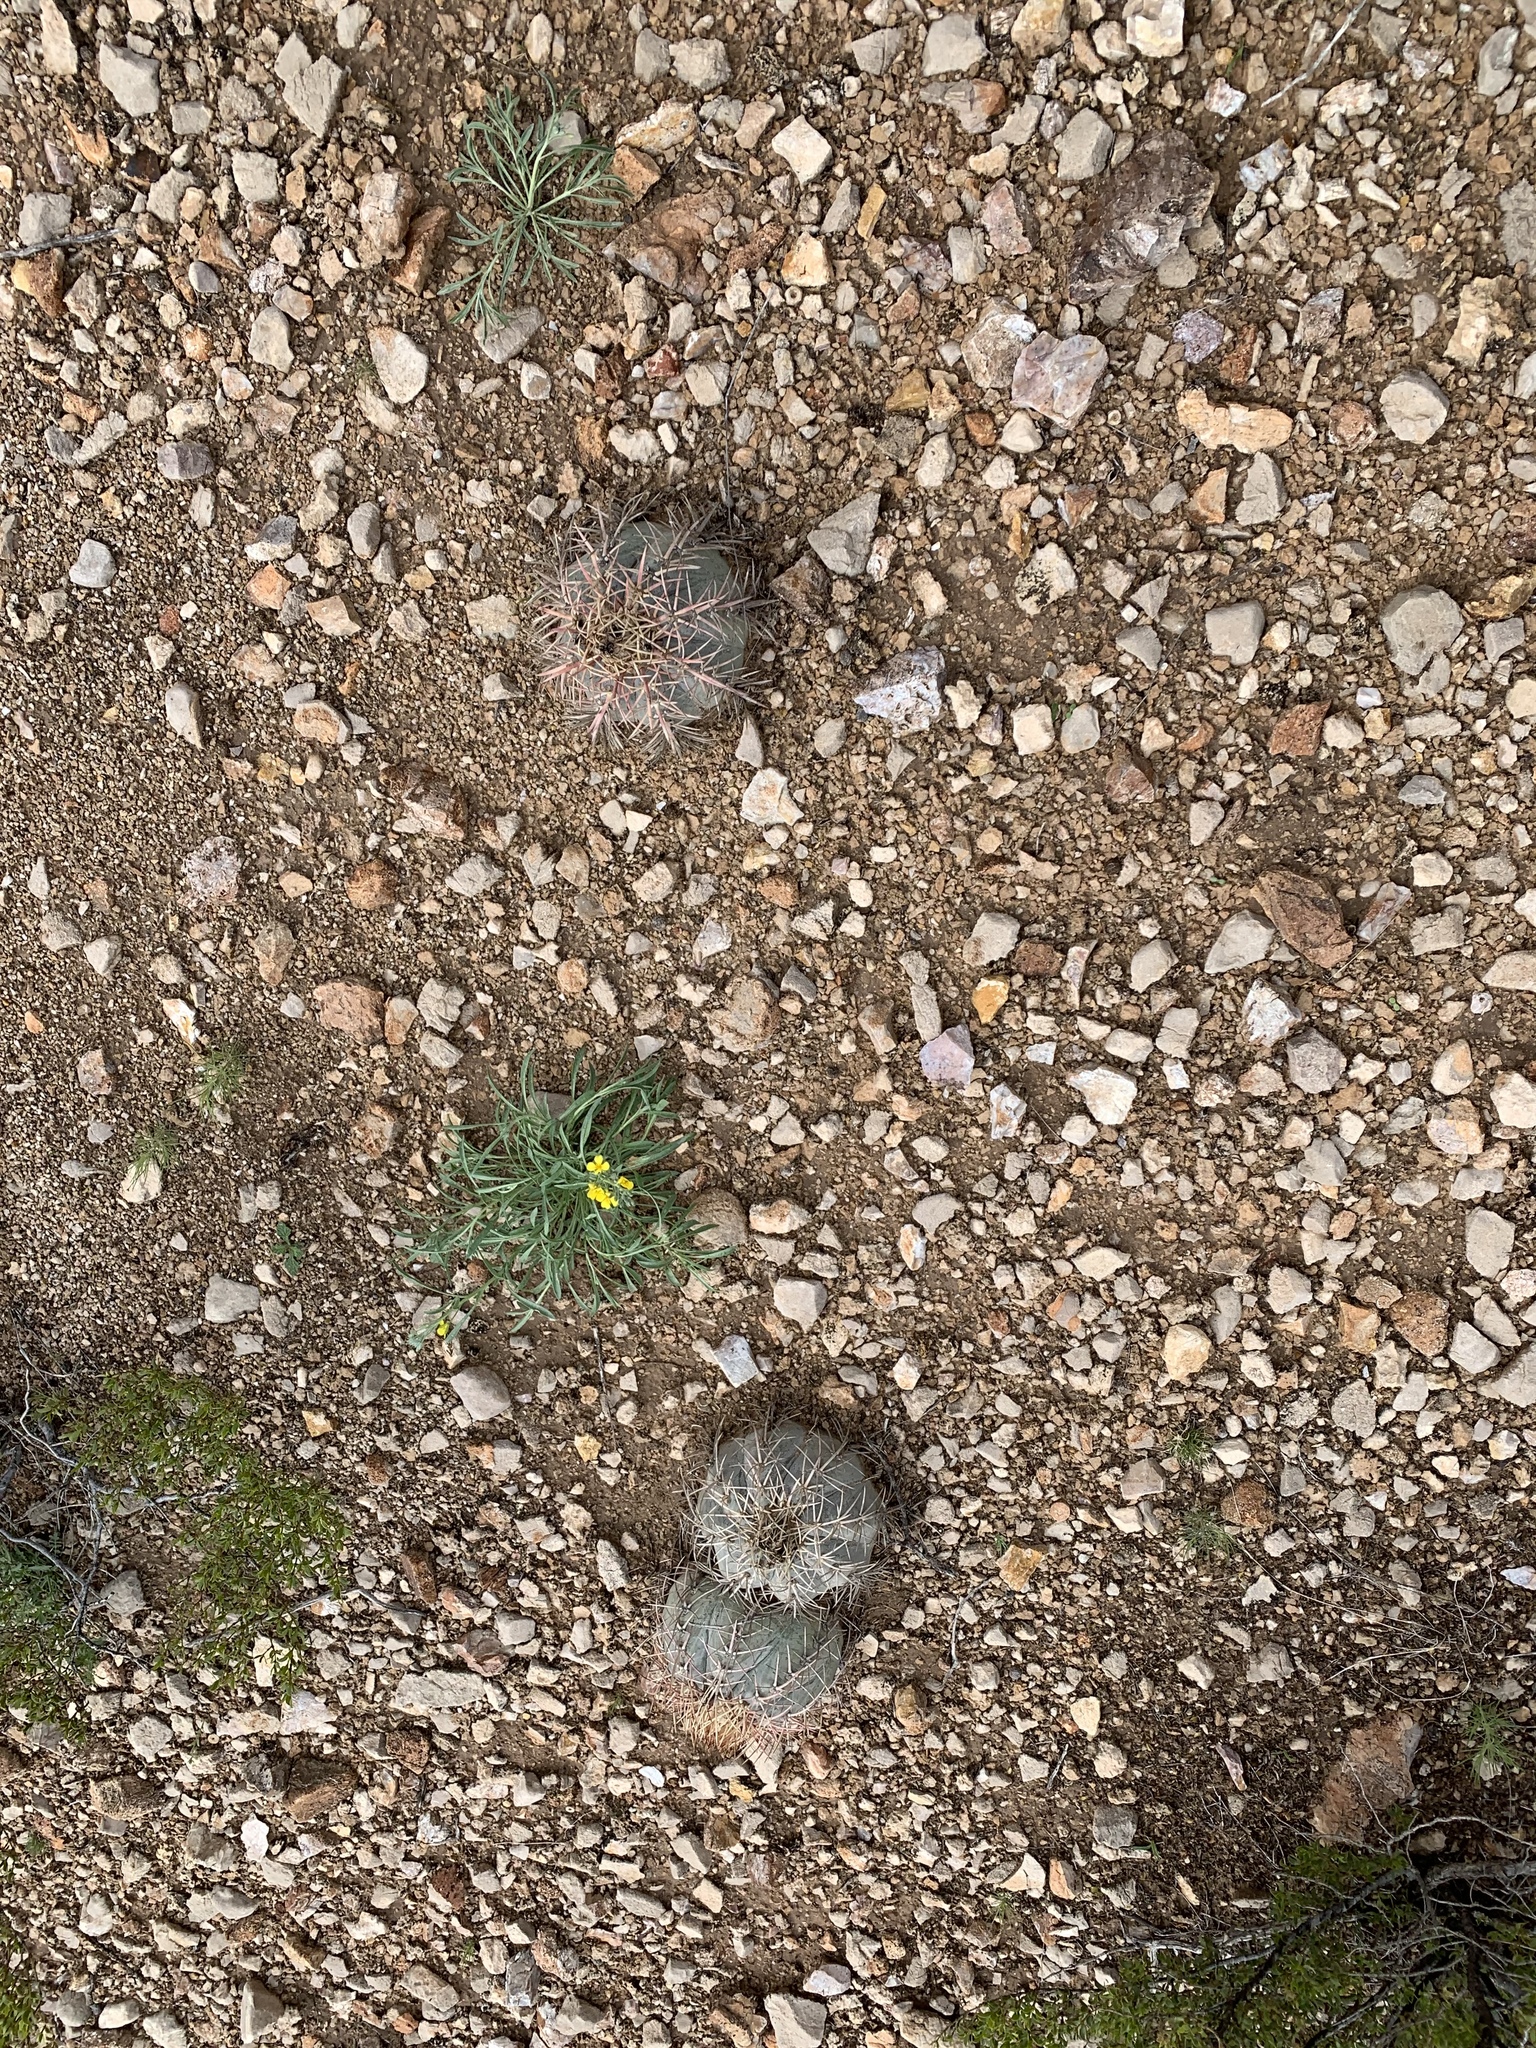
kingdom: Plantae
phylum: Tracheophyta
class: Magnoliopsida
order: Caryophyllales
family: Cactaceae
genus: Echinocactus
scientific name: Echinocactus horizonthalonius
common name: Devilshead
